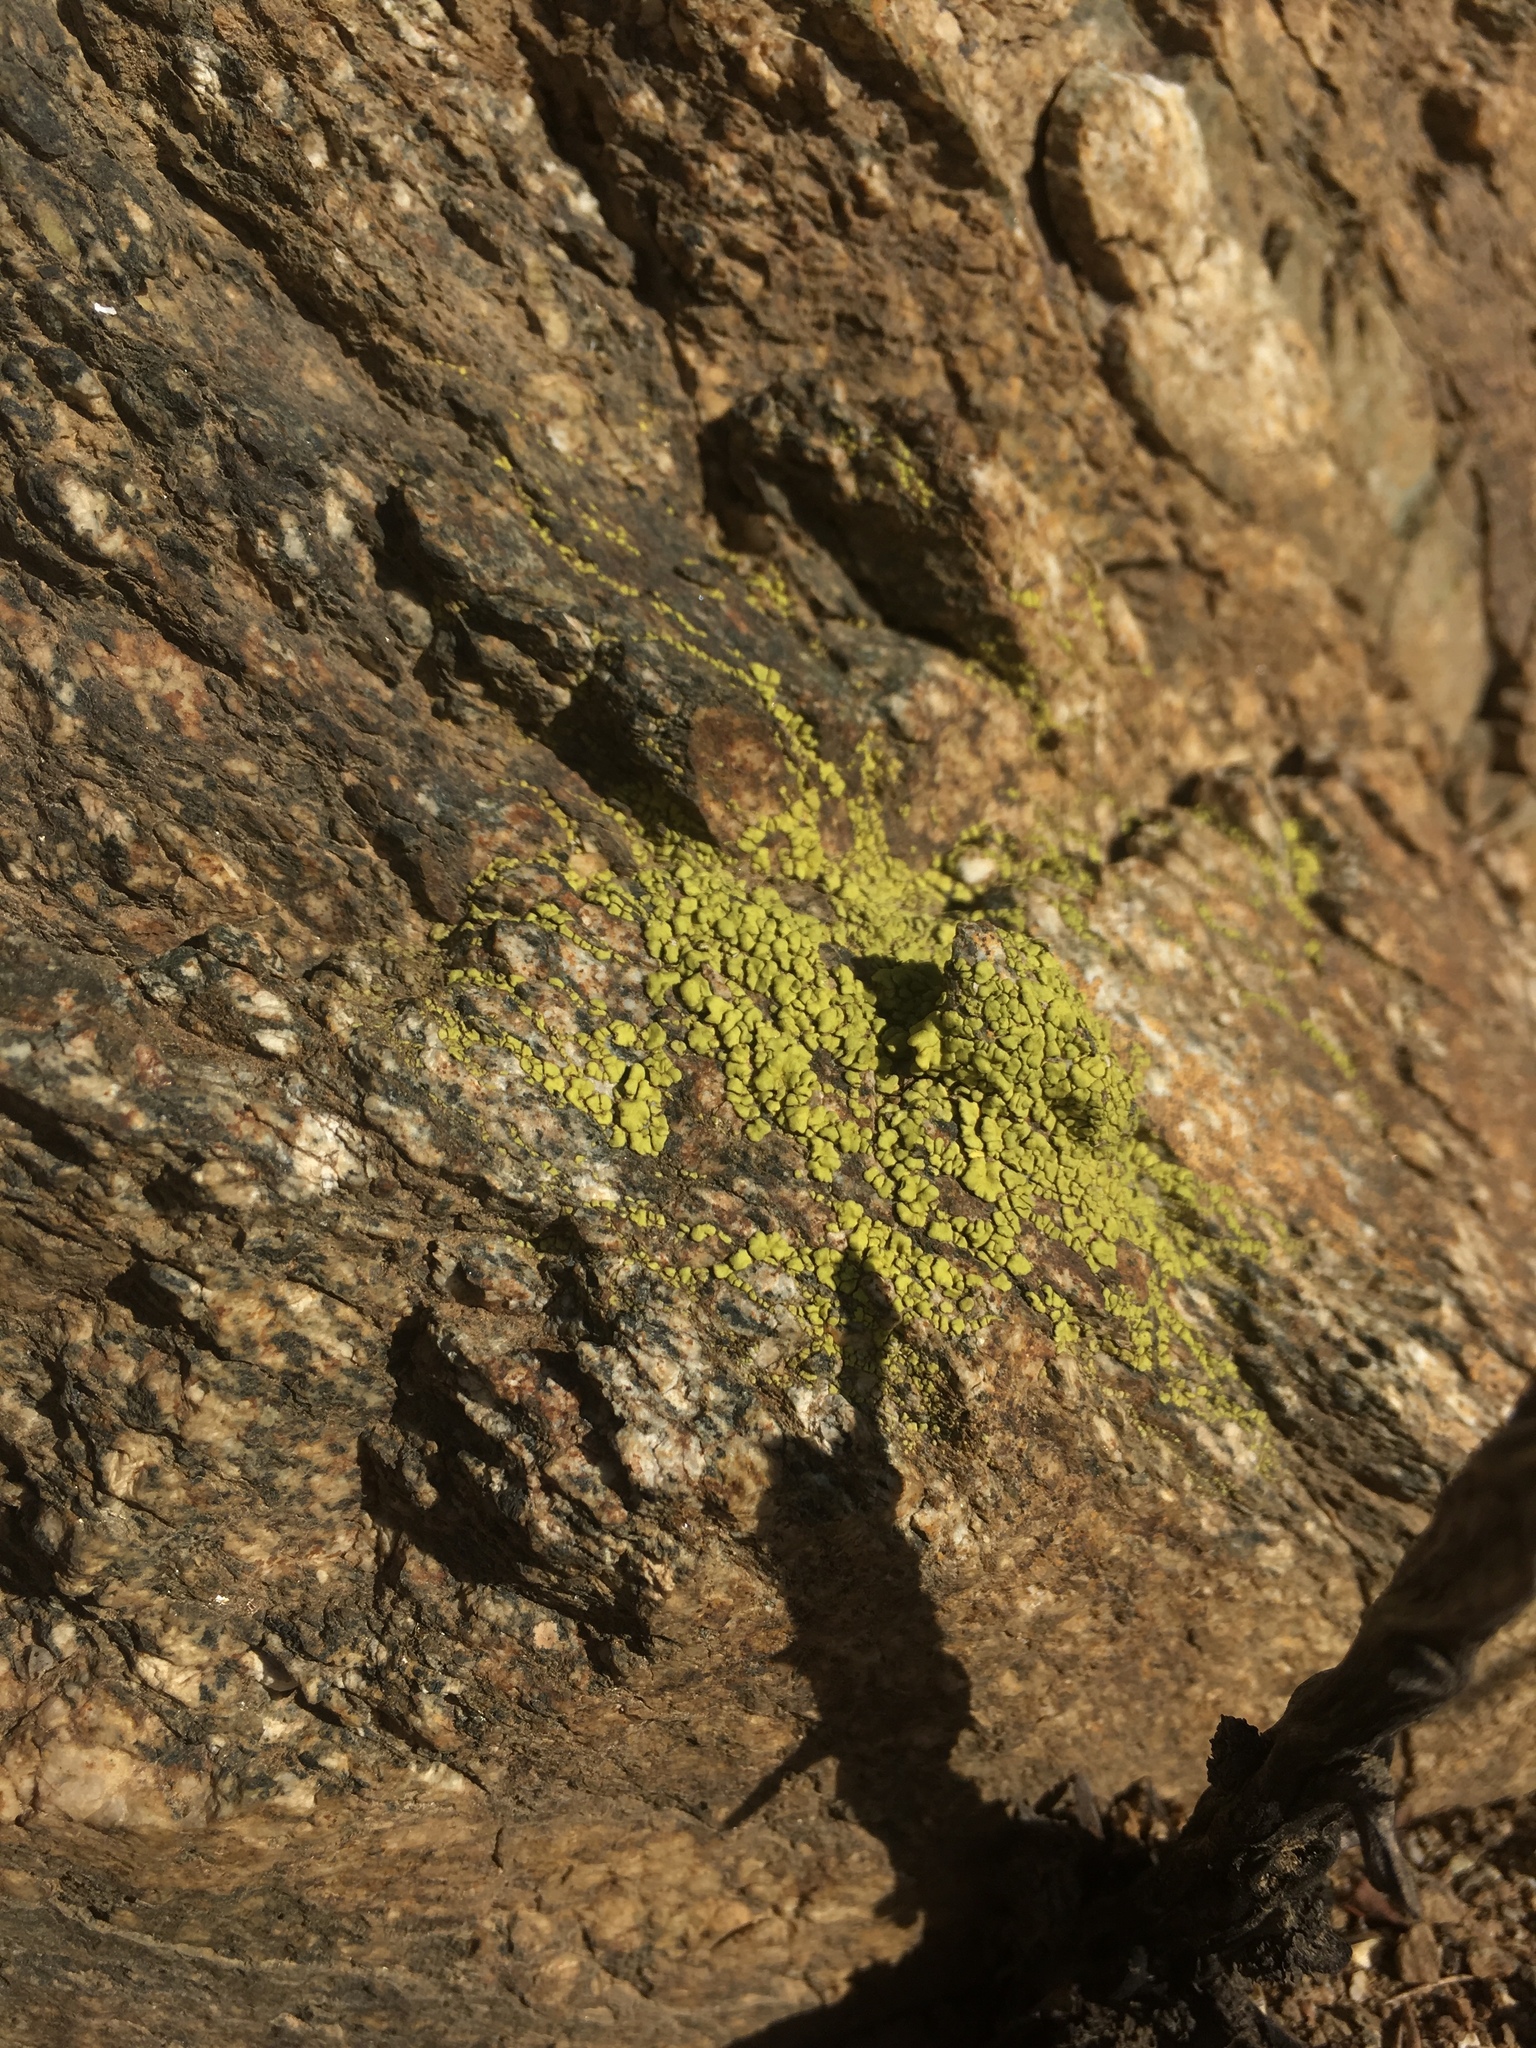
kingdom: Fungi
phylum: Ascomycota
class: Lecanoromycetes
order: Acarosporales
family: Acarosporaceae
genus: Acarospora
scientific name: Acarospora socialis
